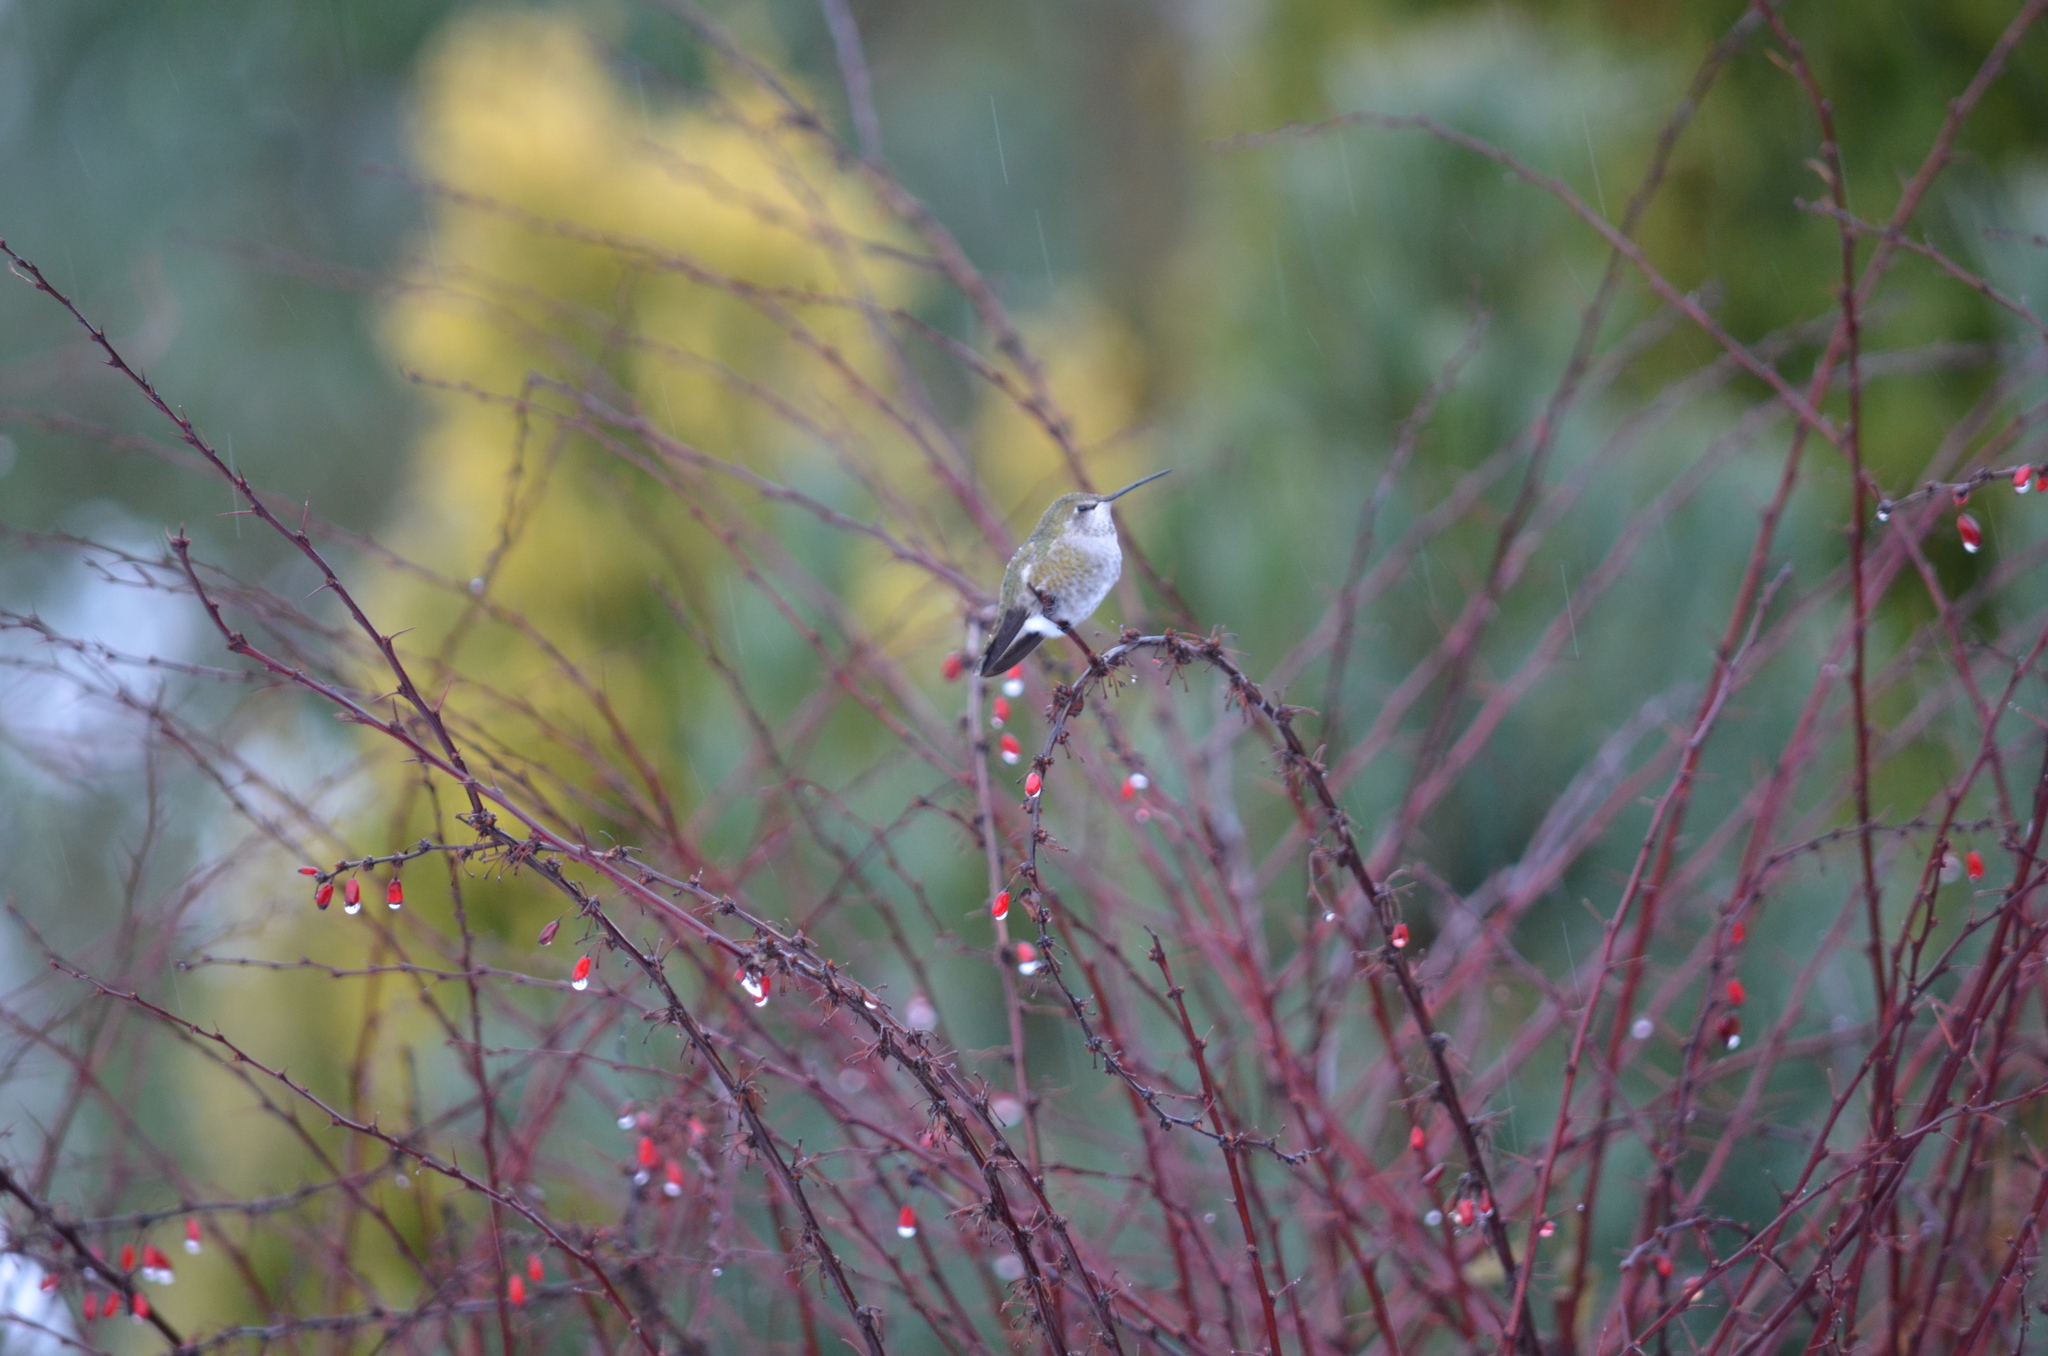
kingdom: Animalia
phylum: Chordata
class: Aves
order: Apodiformes
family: Trochilidae
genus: Calypte
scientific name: Calypte anna
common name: Anna's hummingbird
